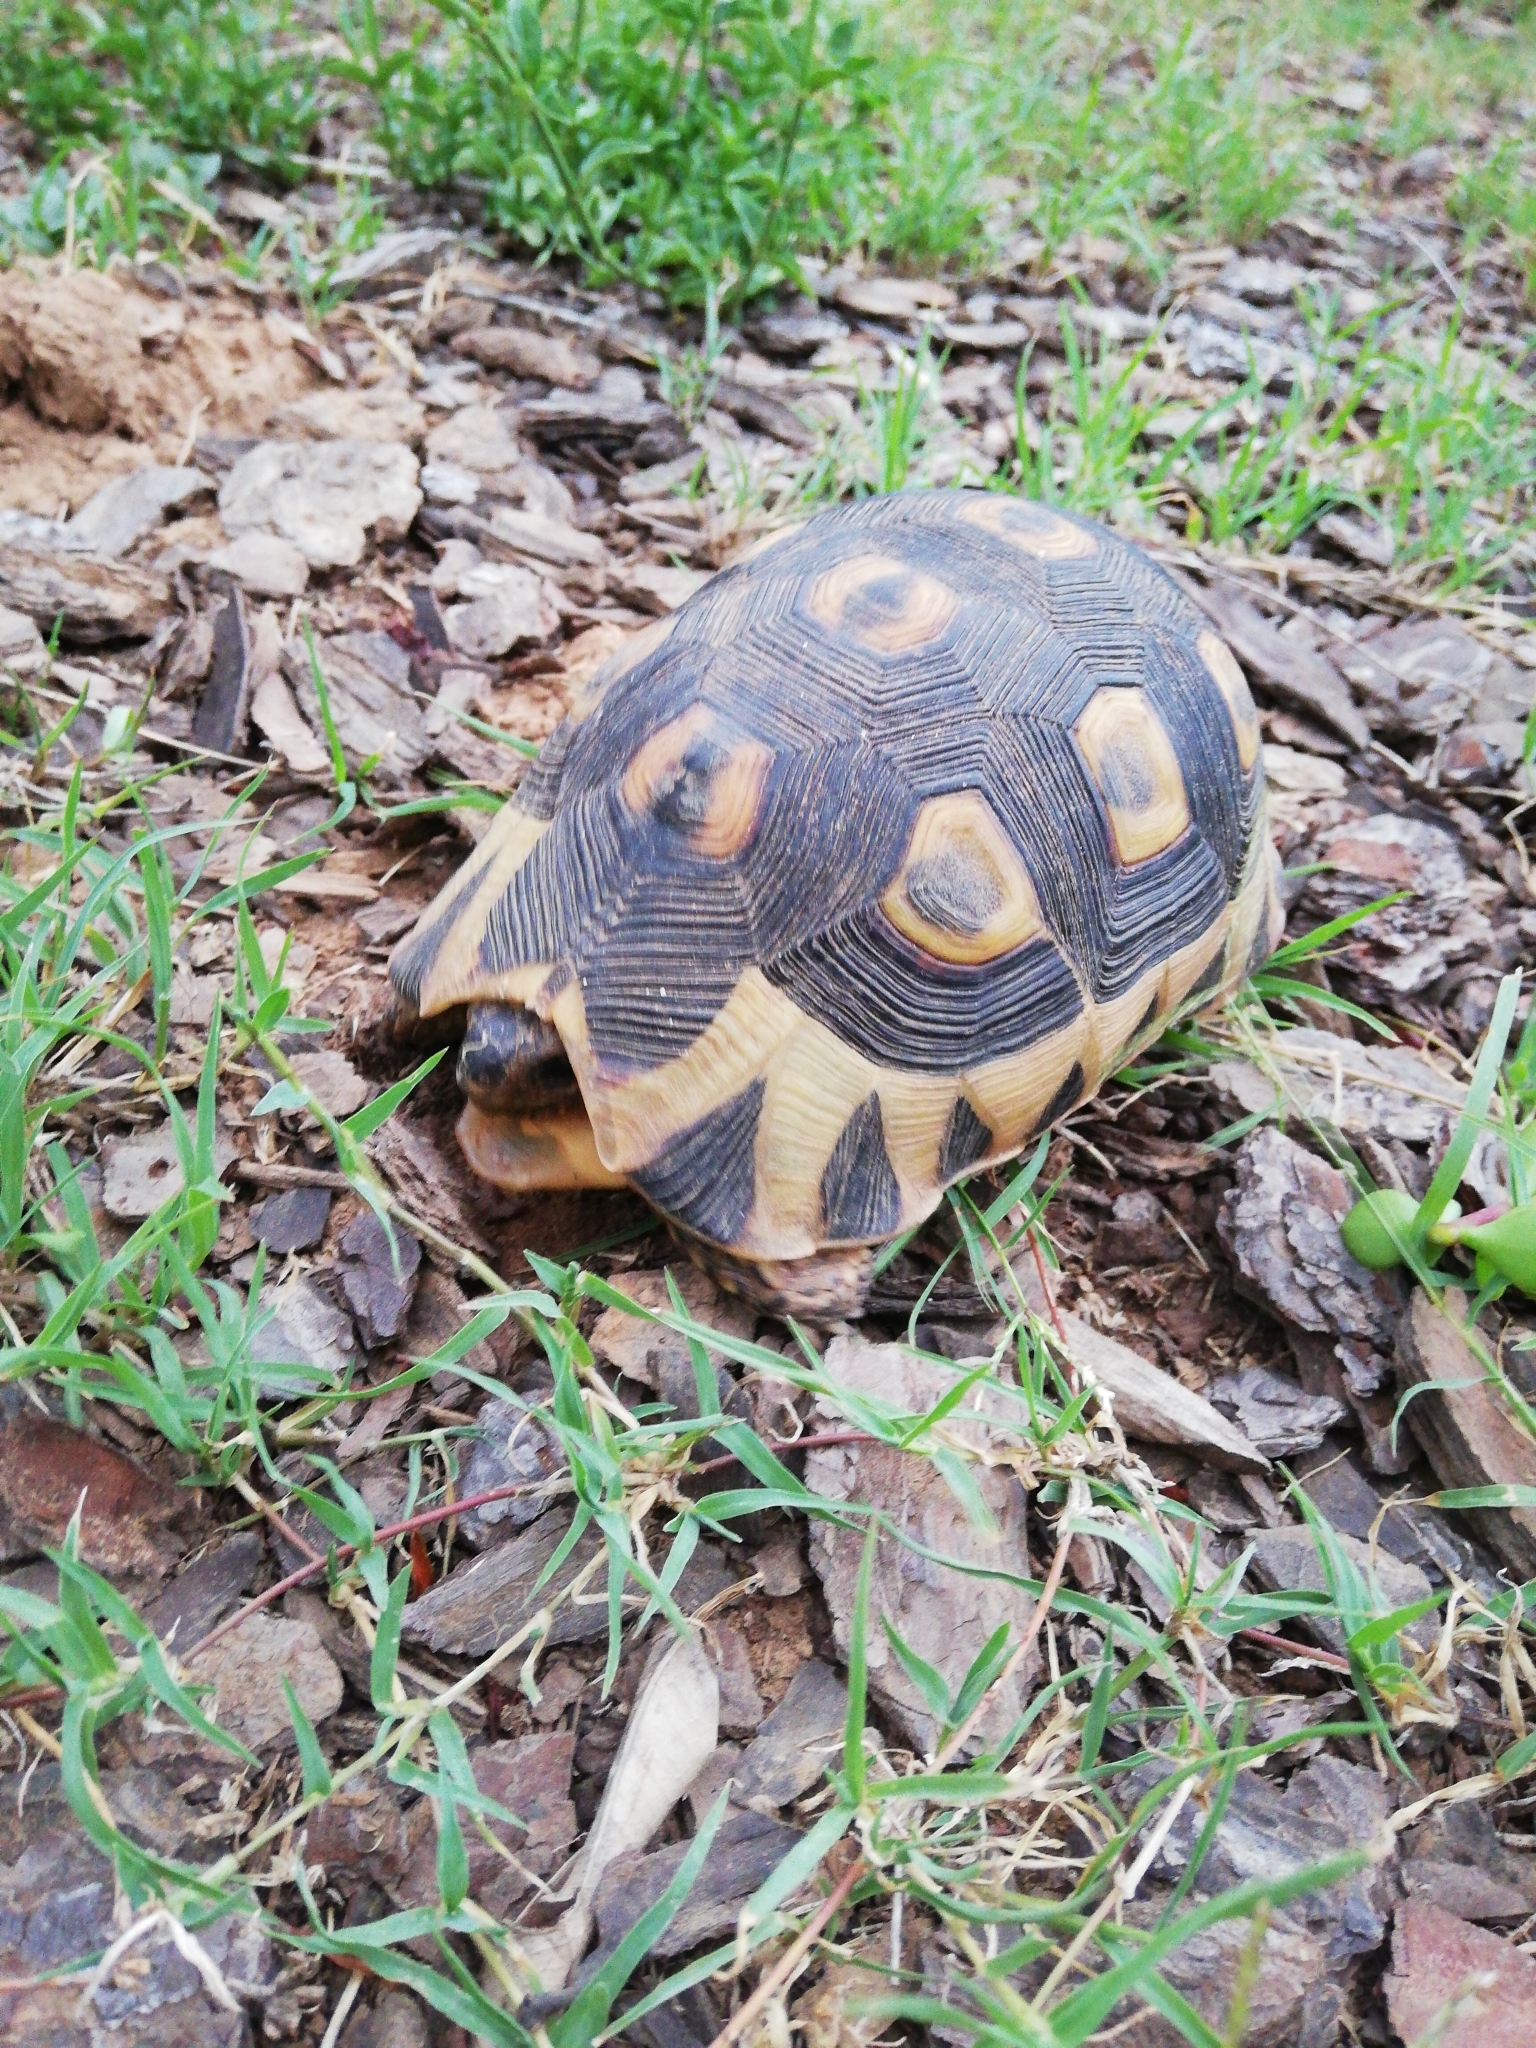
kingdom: Animalia
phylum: Chordata
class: Testudines
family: Testudinidae
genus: Chersina
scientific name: Chersina angulata
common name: South african bowsprit tortoise
